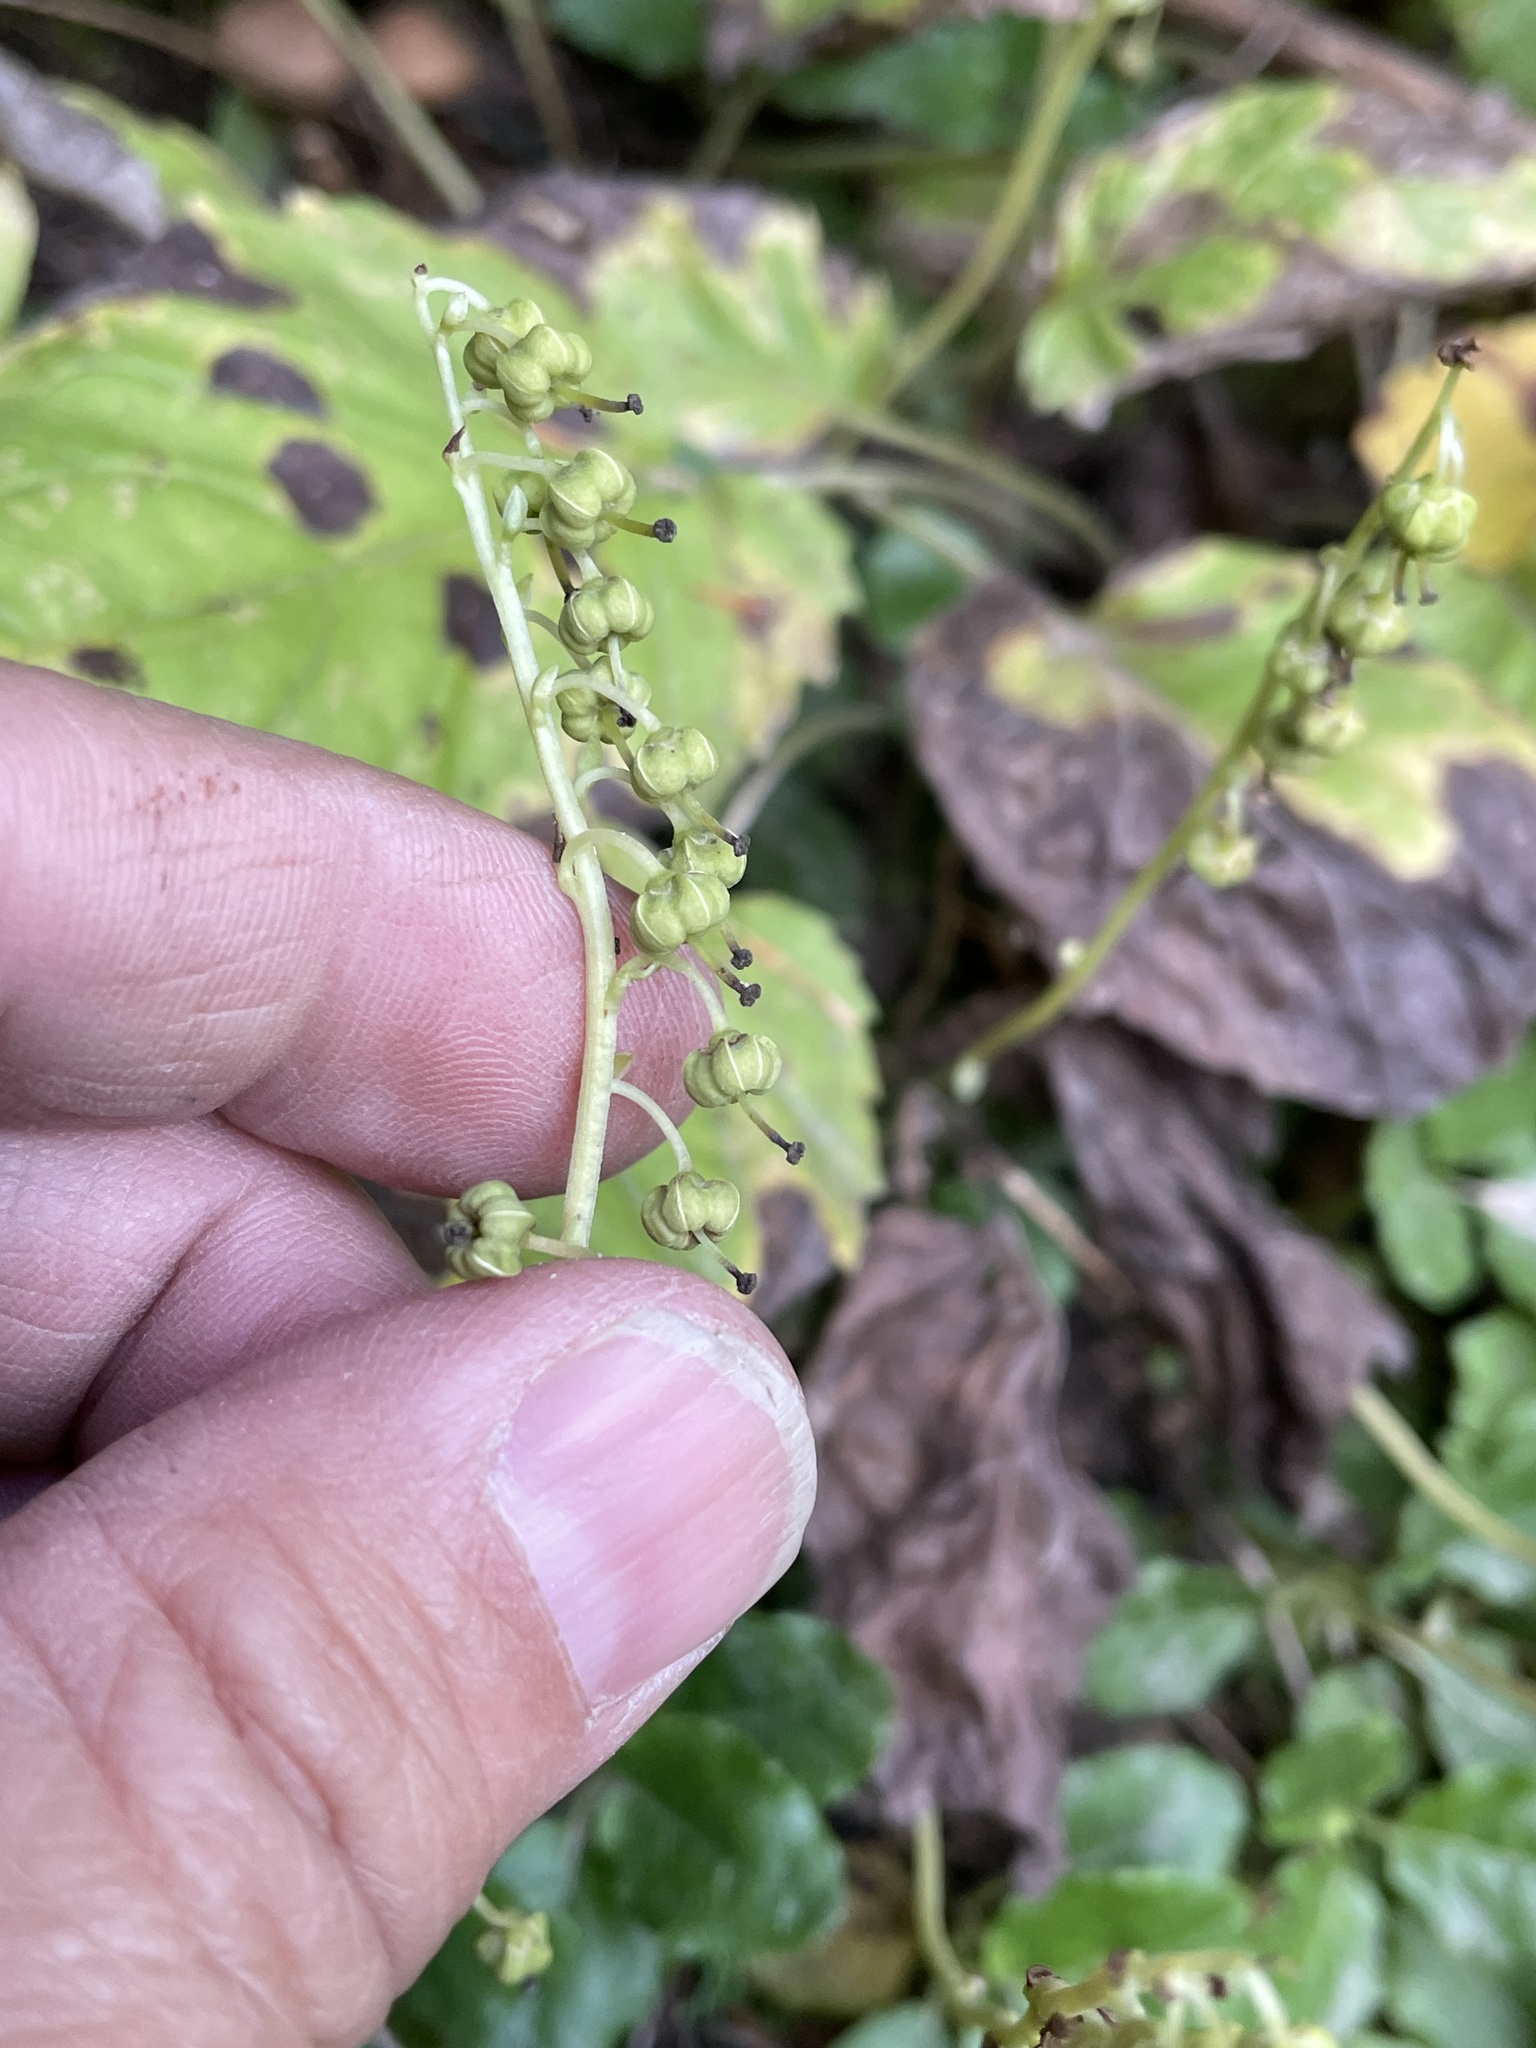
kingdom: Plantae
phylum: Tracheophyta
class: Magnoliopsida
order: Ericales
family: Ericaceae
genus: Orthilia
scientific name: Orthilia secunda
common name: One-sided orthilia
